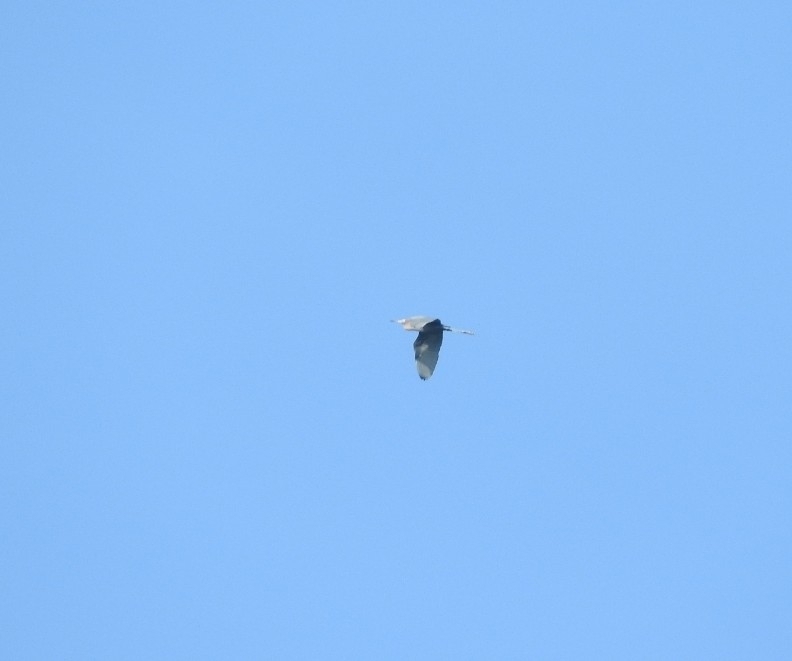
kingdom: Animalia
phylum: Chordata
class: Aves
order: Pelecaniformes
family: Ardeidae
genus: Egretta
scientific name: Egretta rufescens
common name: Reddish egret
